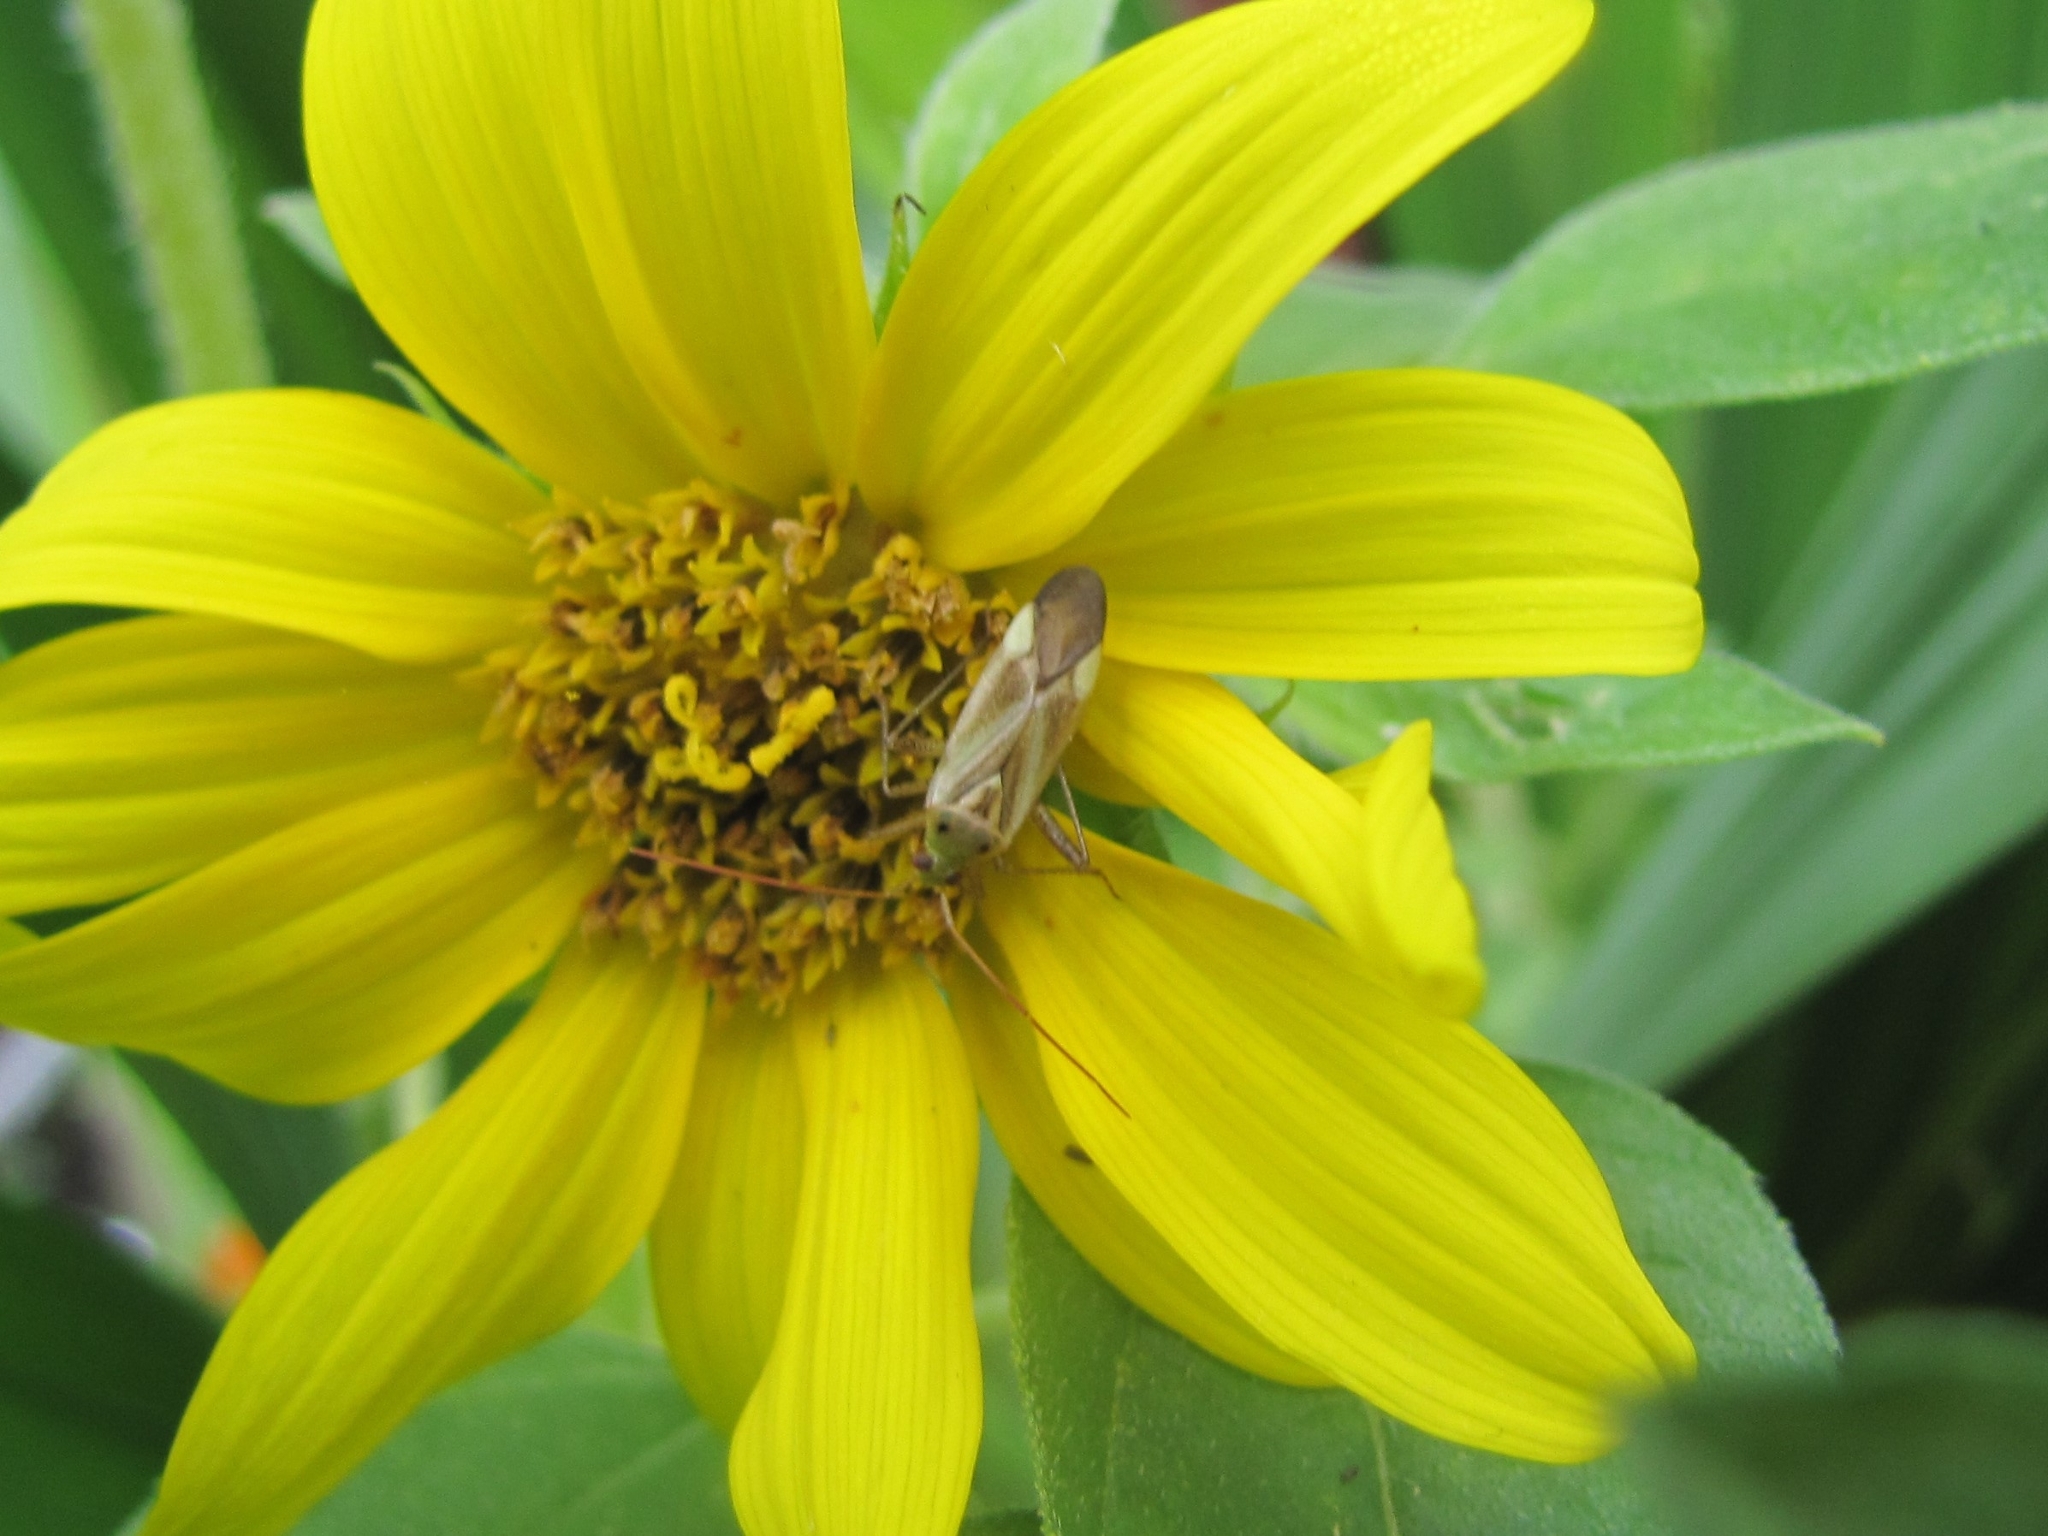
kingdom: Animalia
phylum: Arthropoda
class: Insecta
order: Hemiptera
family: Miridae
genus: Adelphocoris
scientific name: Adelphocoris lineolatus
